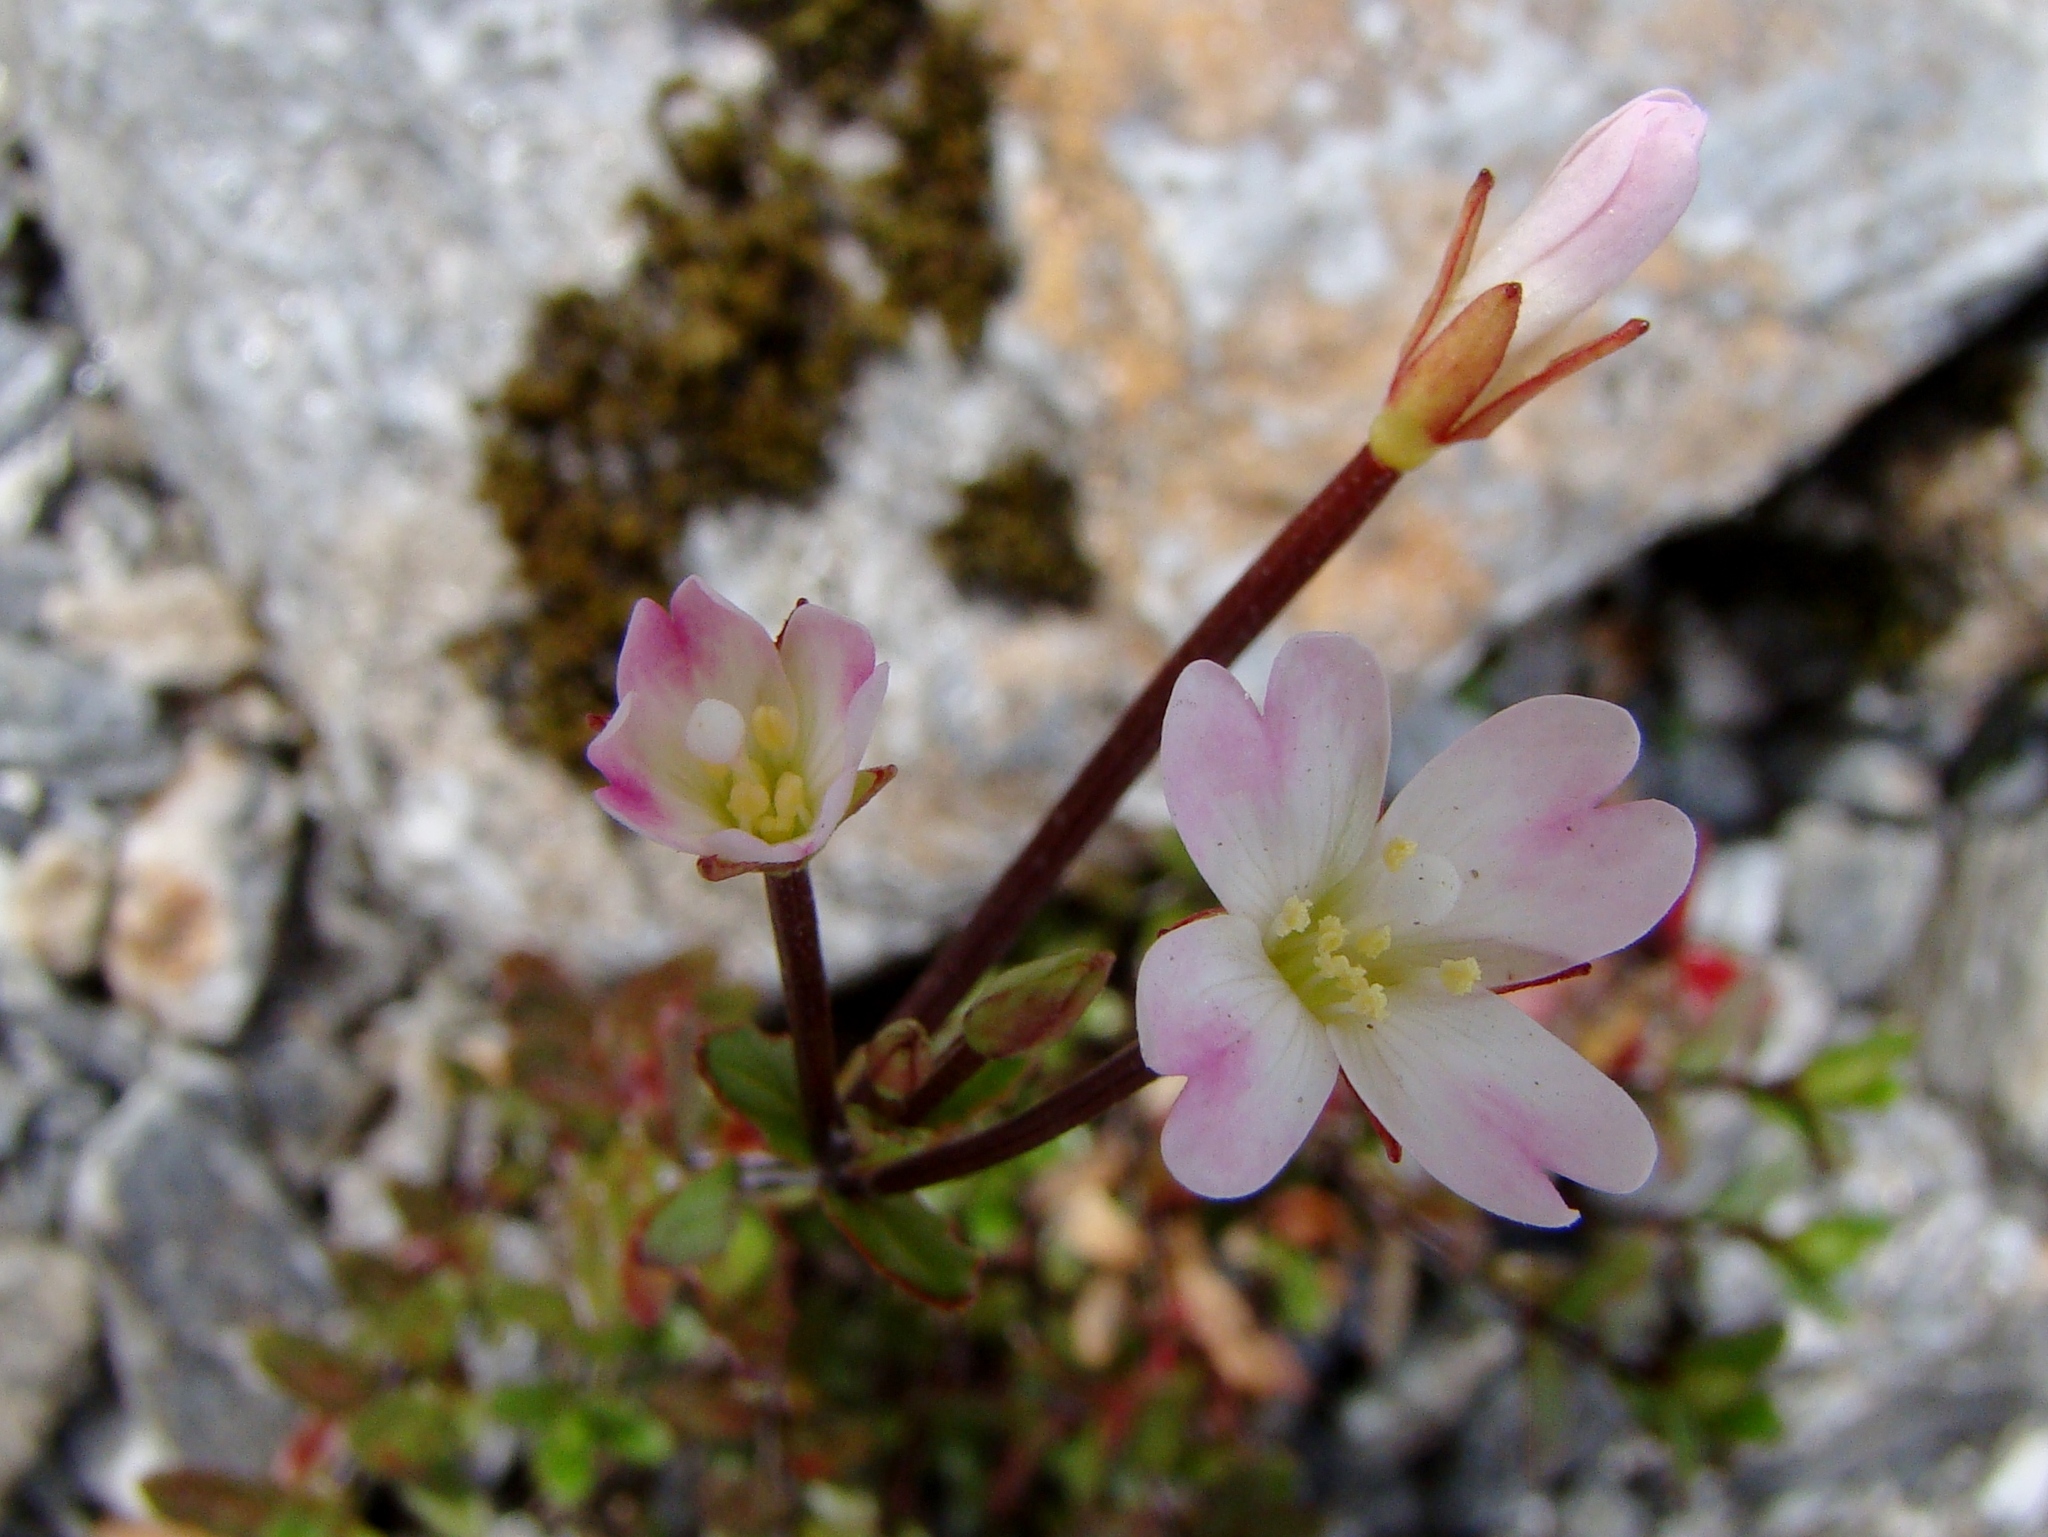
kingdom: Plantae
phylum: Tracheophyta
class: Magnoliopsida
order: Myrtales
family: Onagraceae
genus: Epilobium
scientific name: Epilobium glabellum
